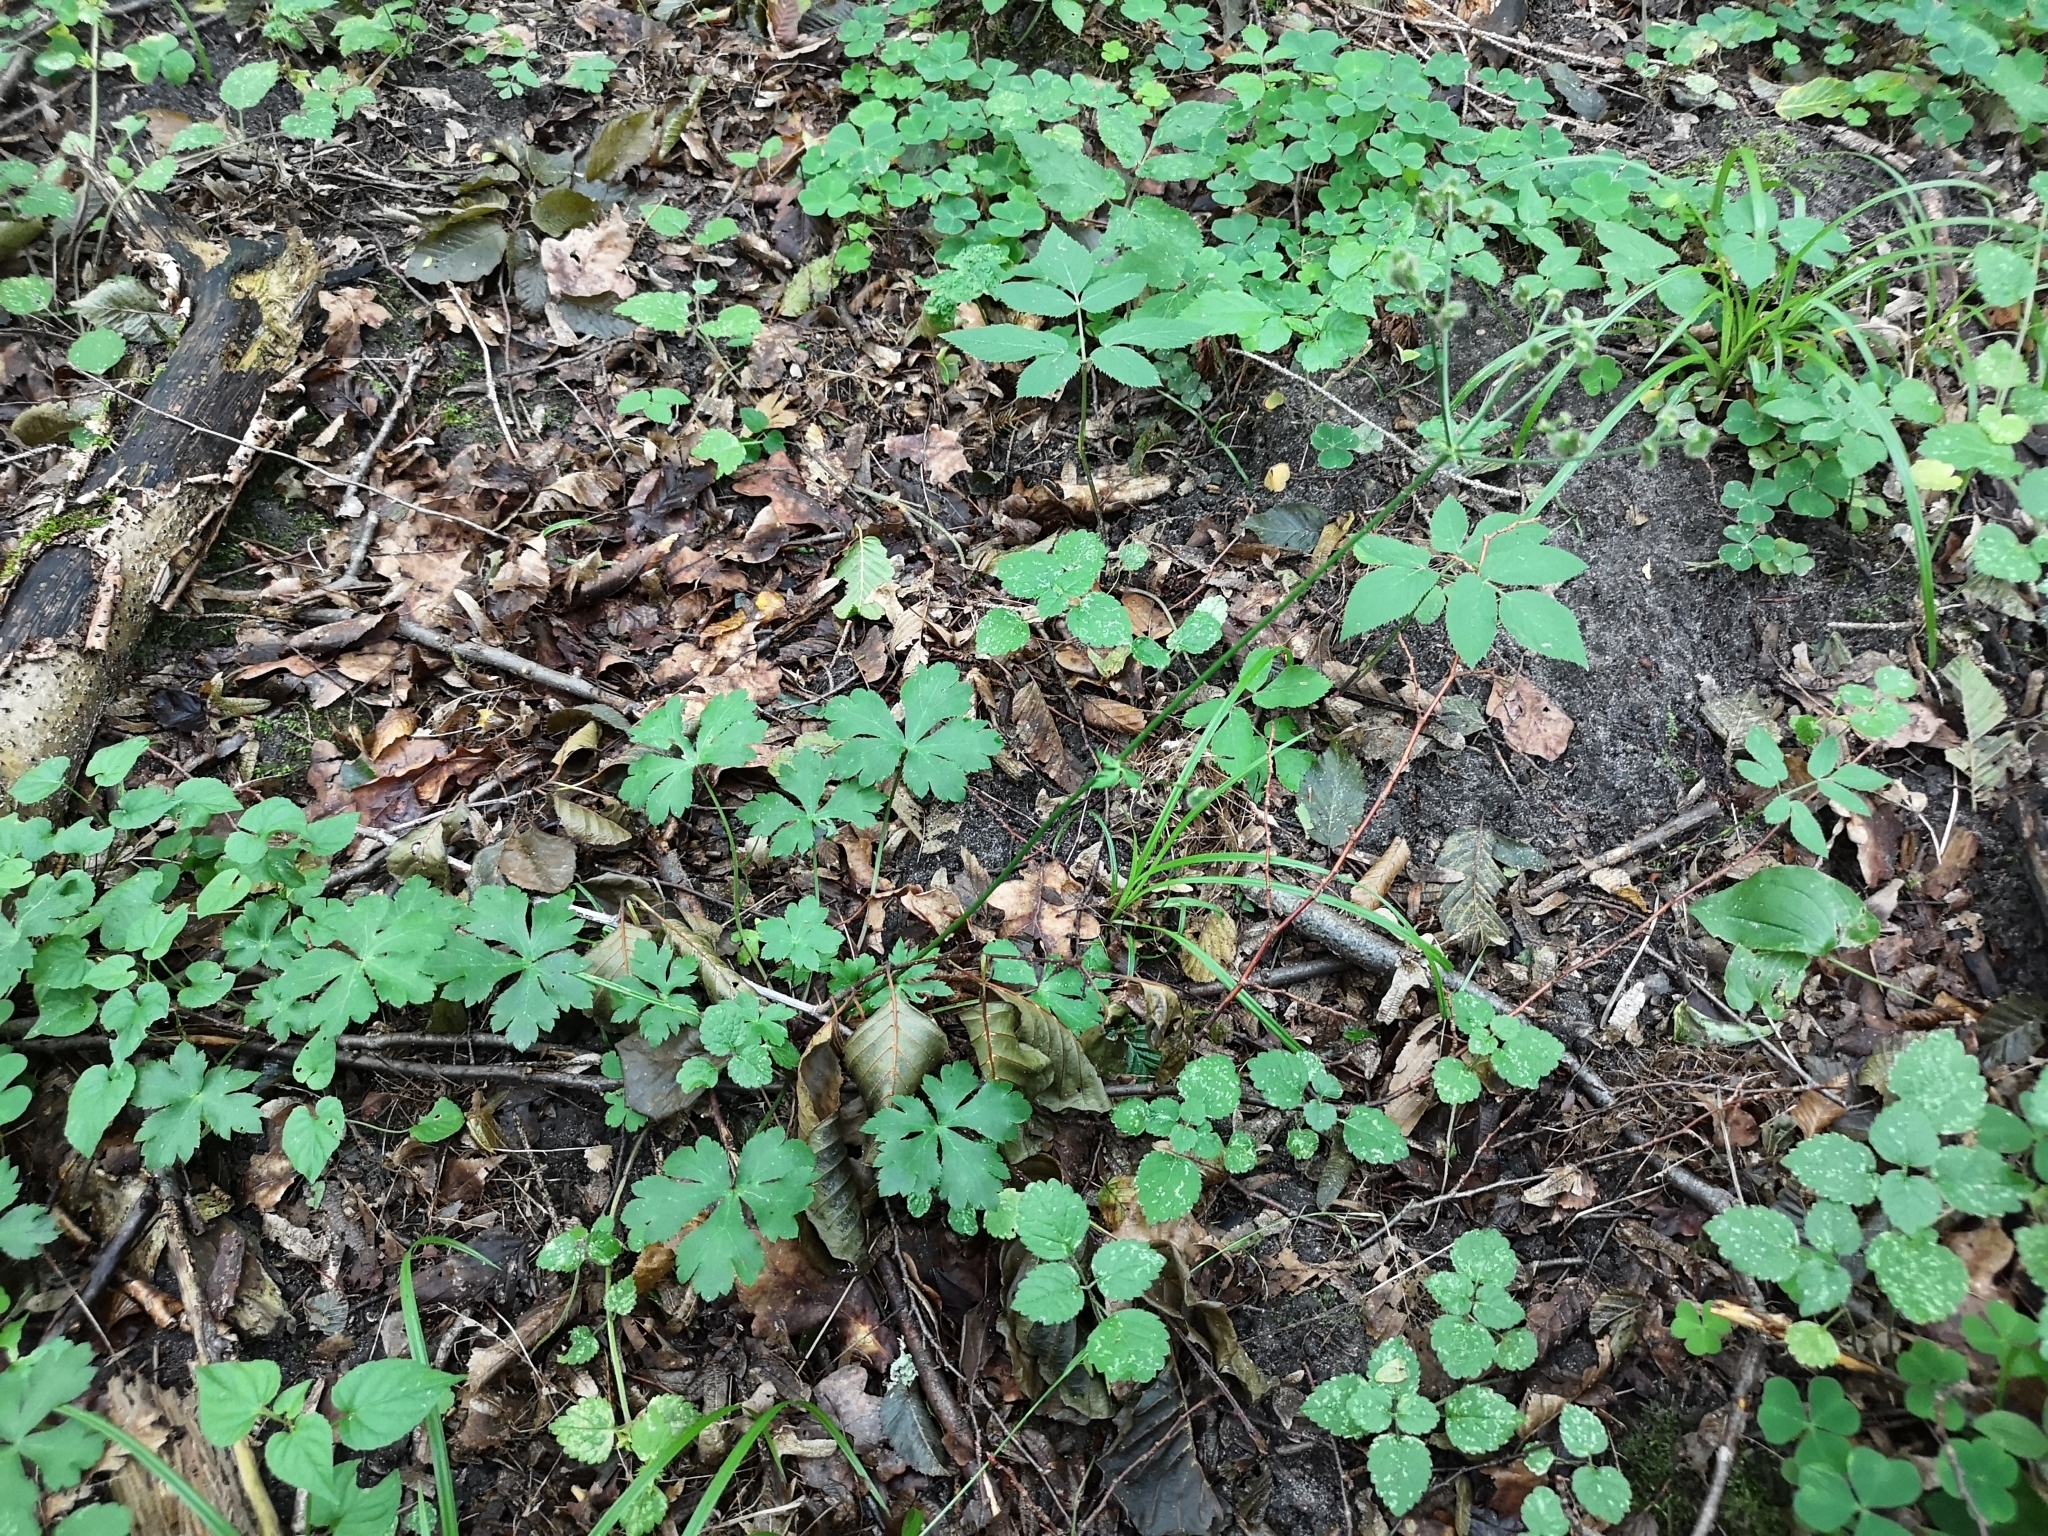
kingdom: Plantae
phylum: Tracheophyta
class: Magnoliopsida
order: Apiales
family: Apiaceae
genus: Sanicula
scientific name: Sanicula europaea
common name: Sanicle
